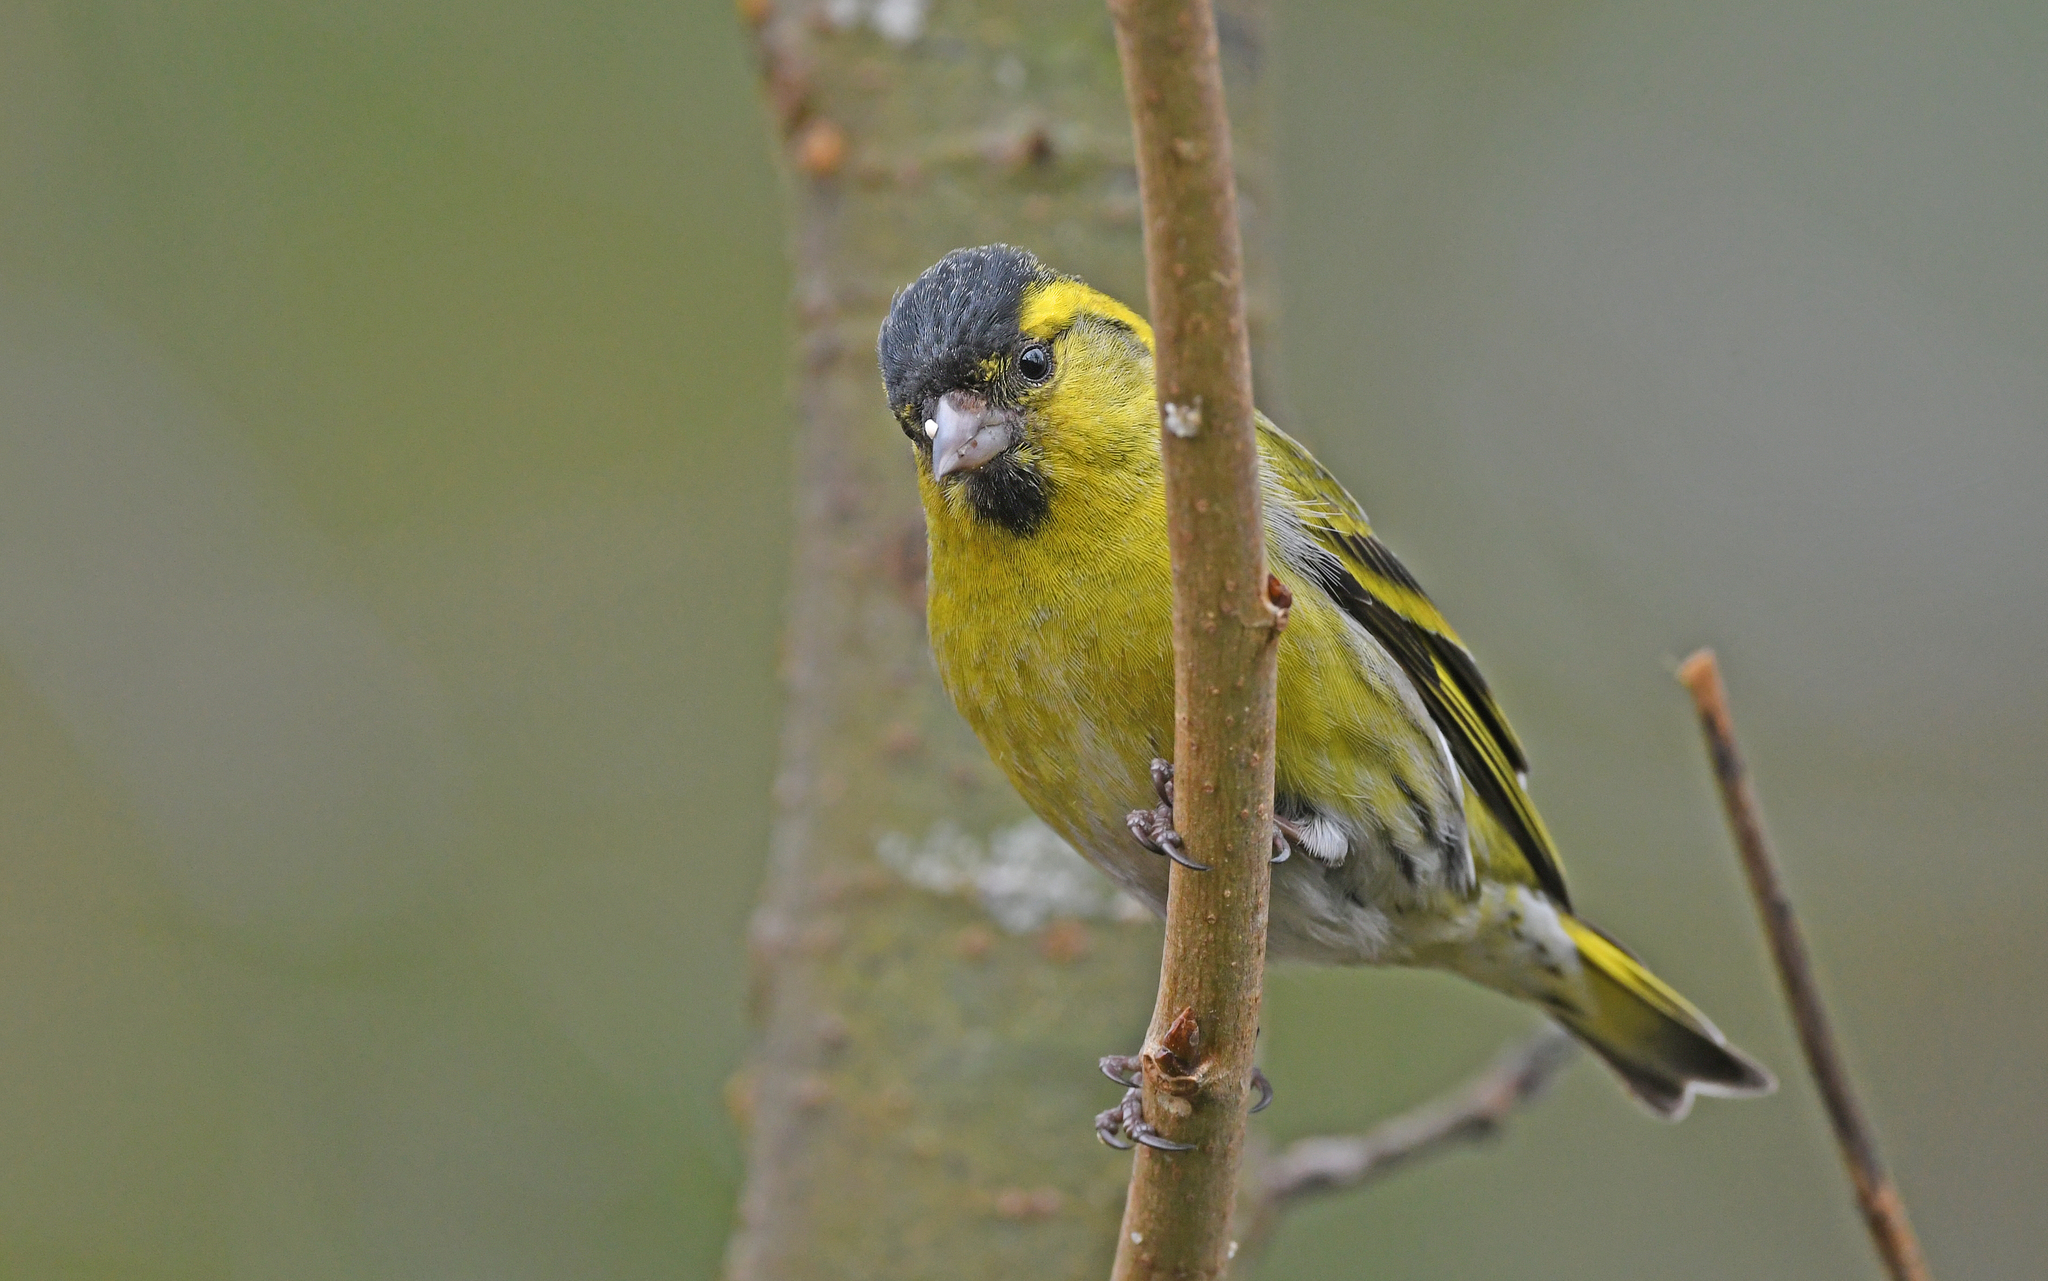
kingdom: Animalia
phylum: Chordata
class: Aves
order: Passeriformes
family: Fringillidae
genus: Spinus
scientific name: Spinus spinus
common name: Eurasian siskin
